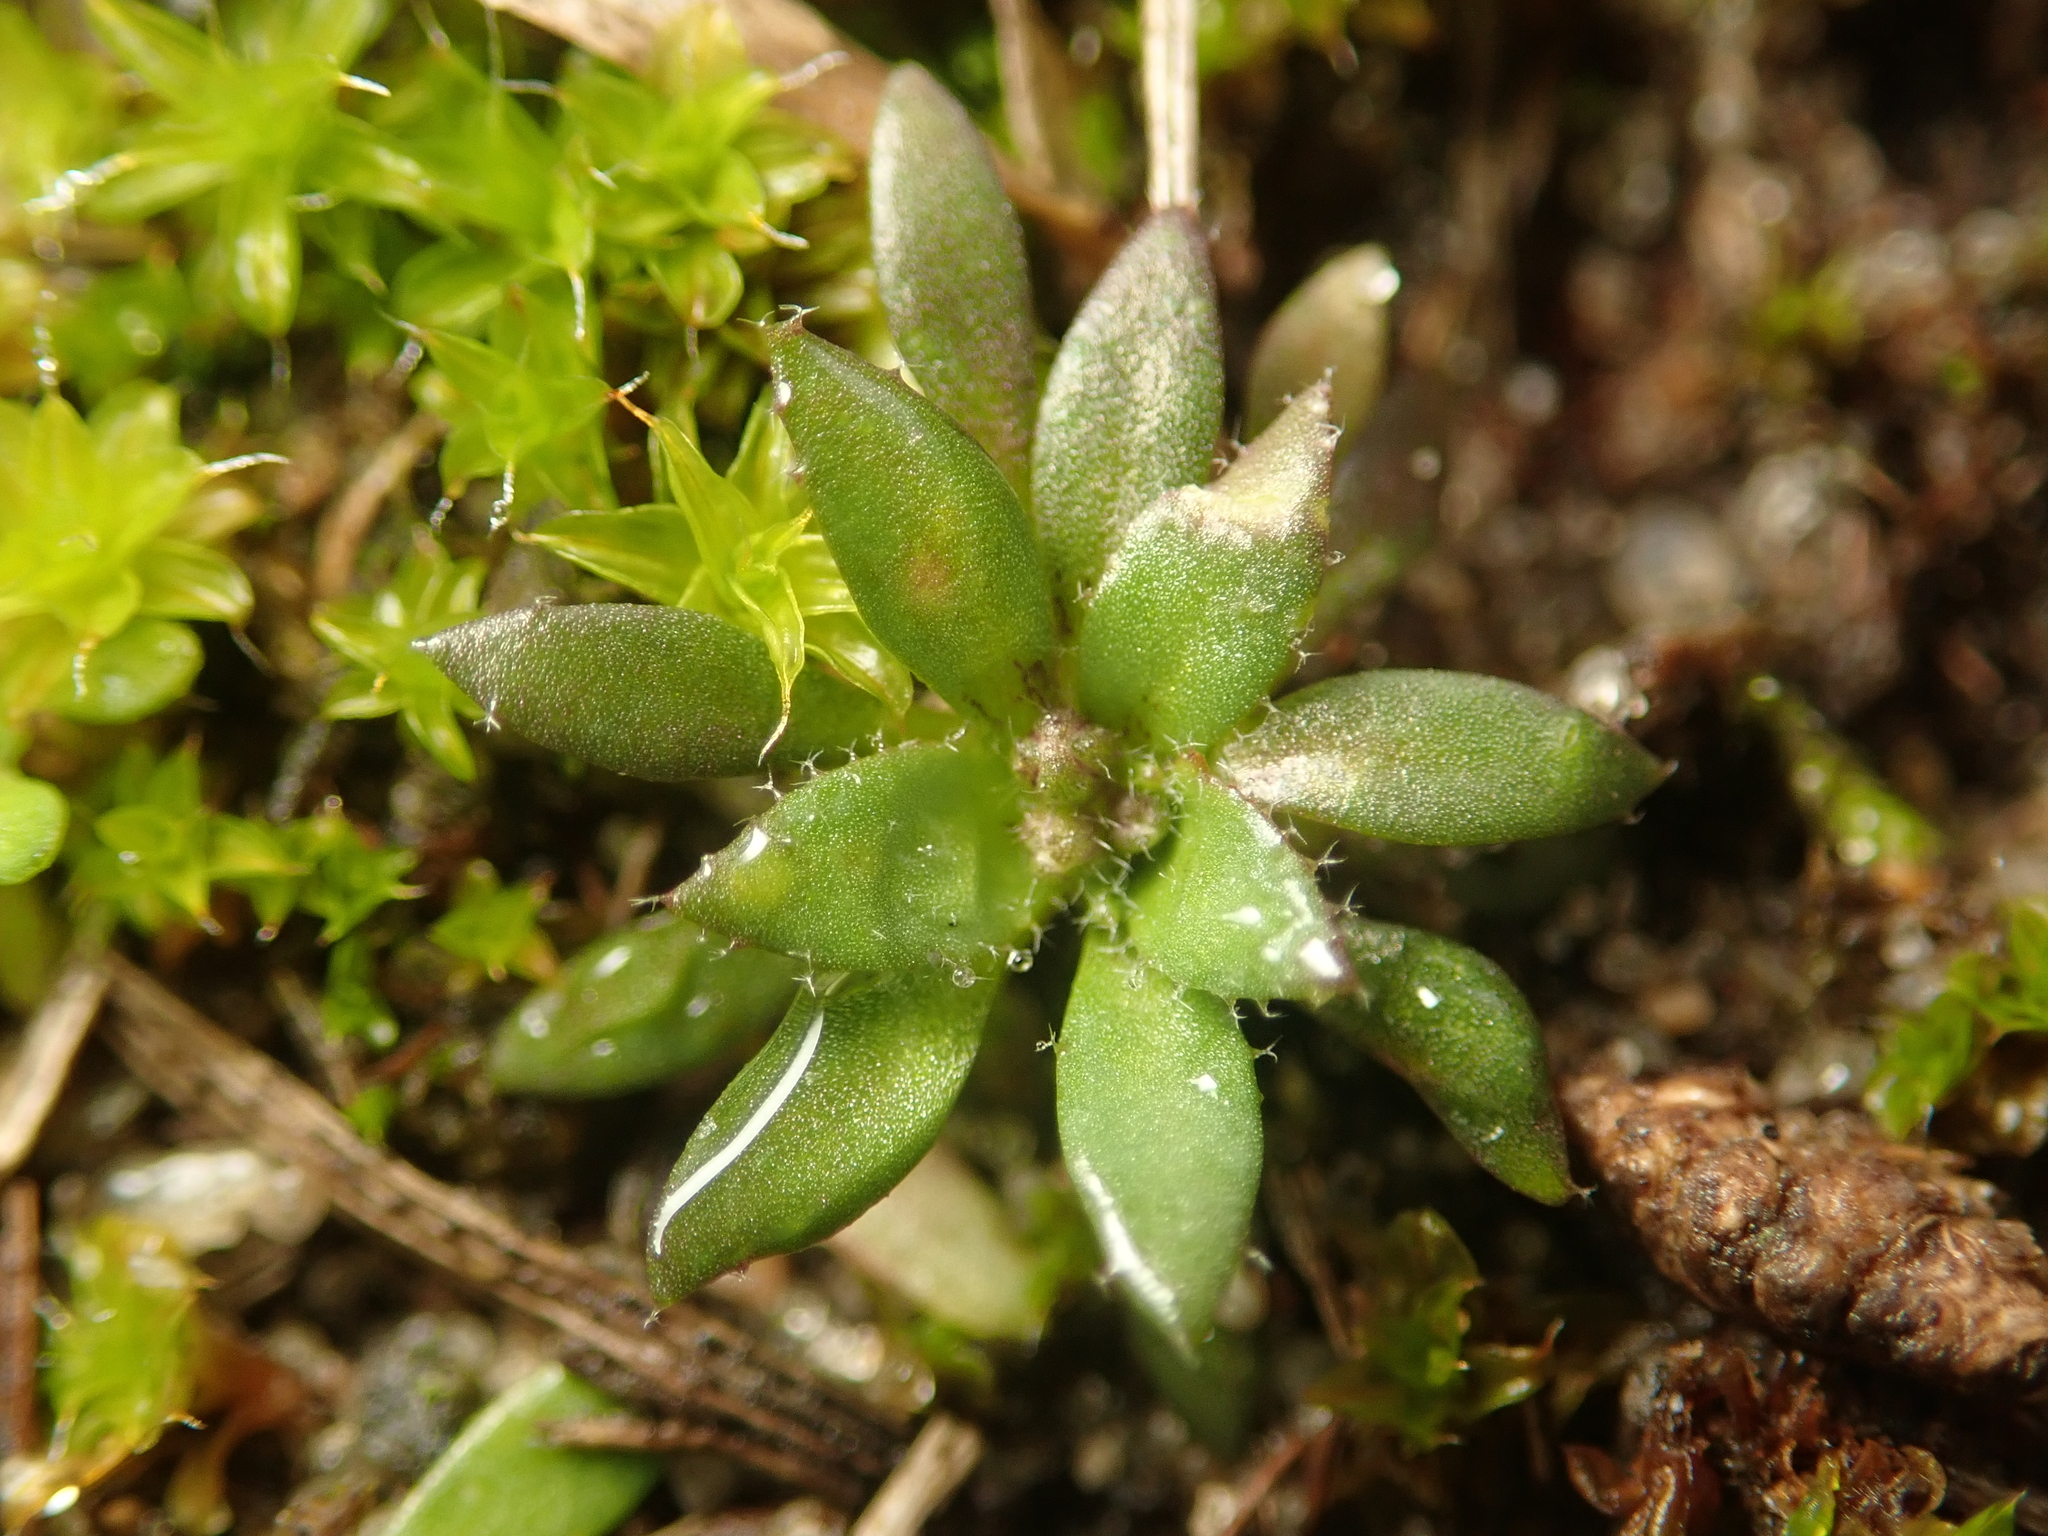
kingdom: Plantae
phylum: Tracheophyta
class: Magnoliopsida
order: Brassicales
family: Brassicaceae
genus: Draba
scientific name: Draba verna
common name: Spring draba
